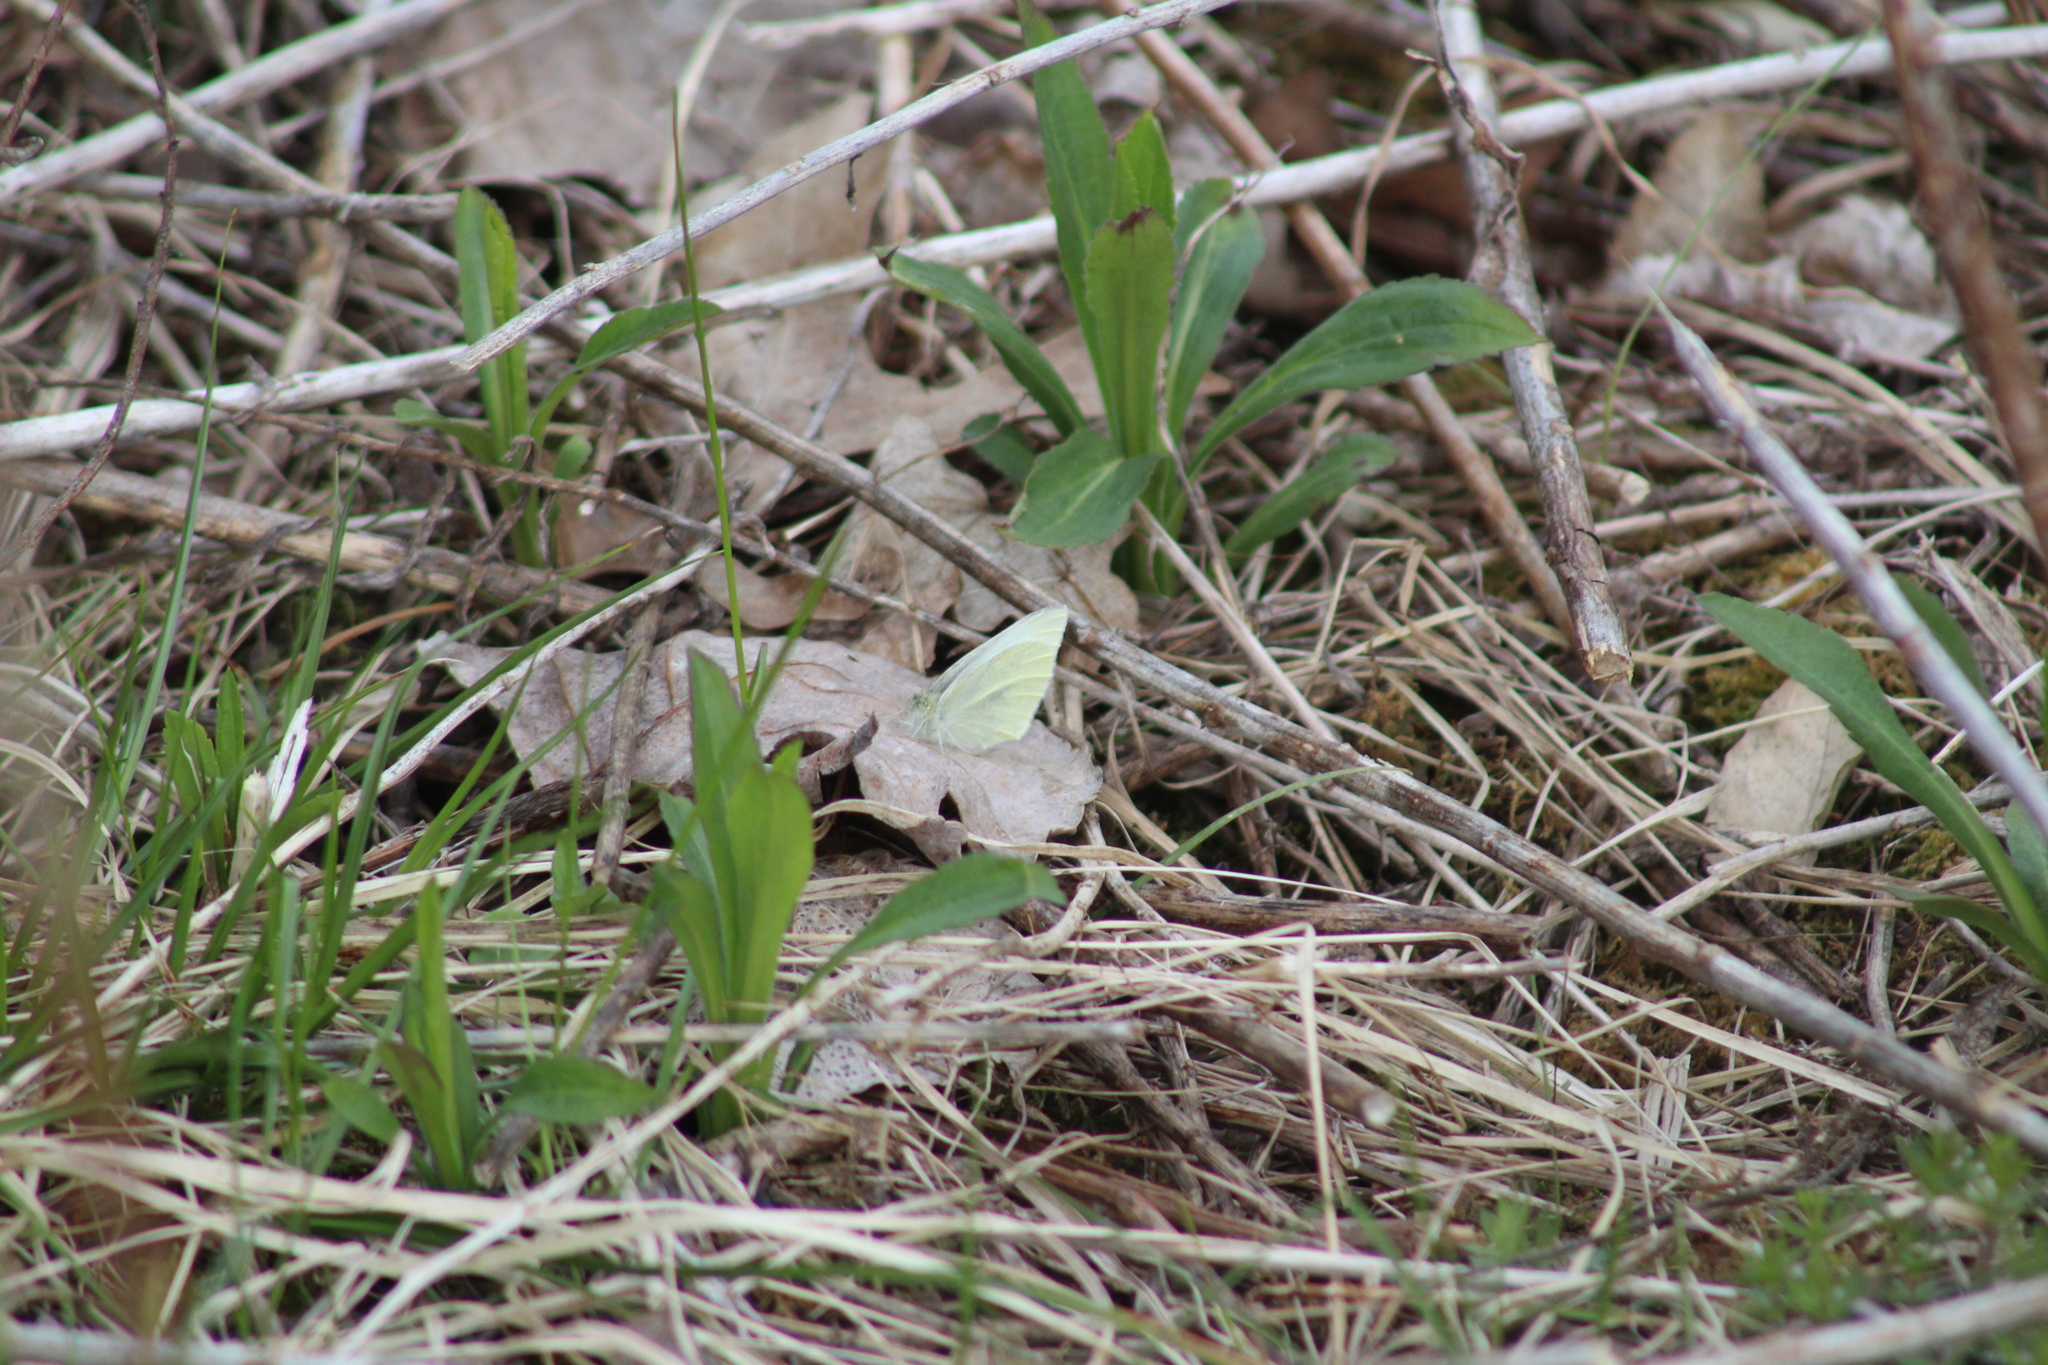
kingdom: Animalia
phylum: Arthropoda
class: Insecta
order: Lepidoptera
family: Pieridae
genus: Pieris
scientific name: Pieris rapae
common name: Small white
